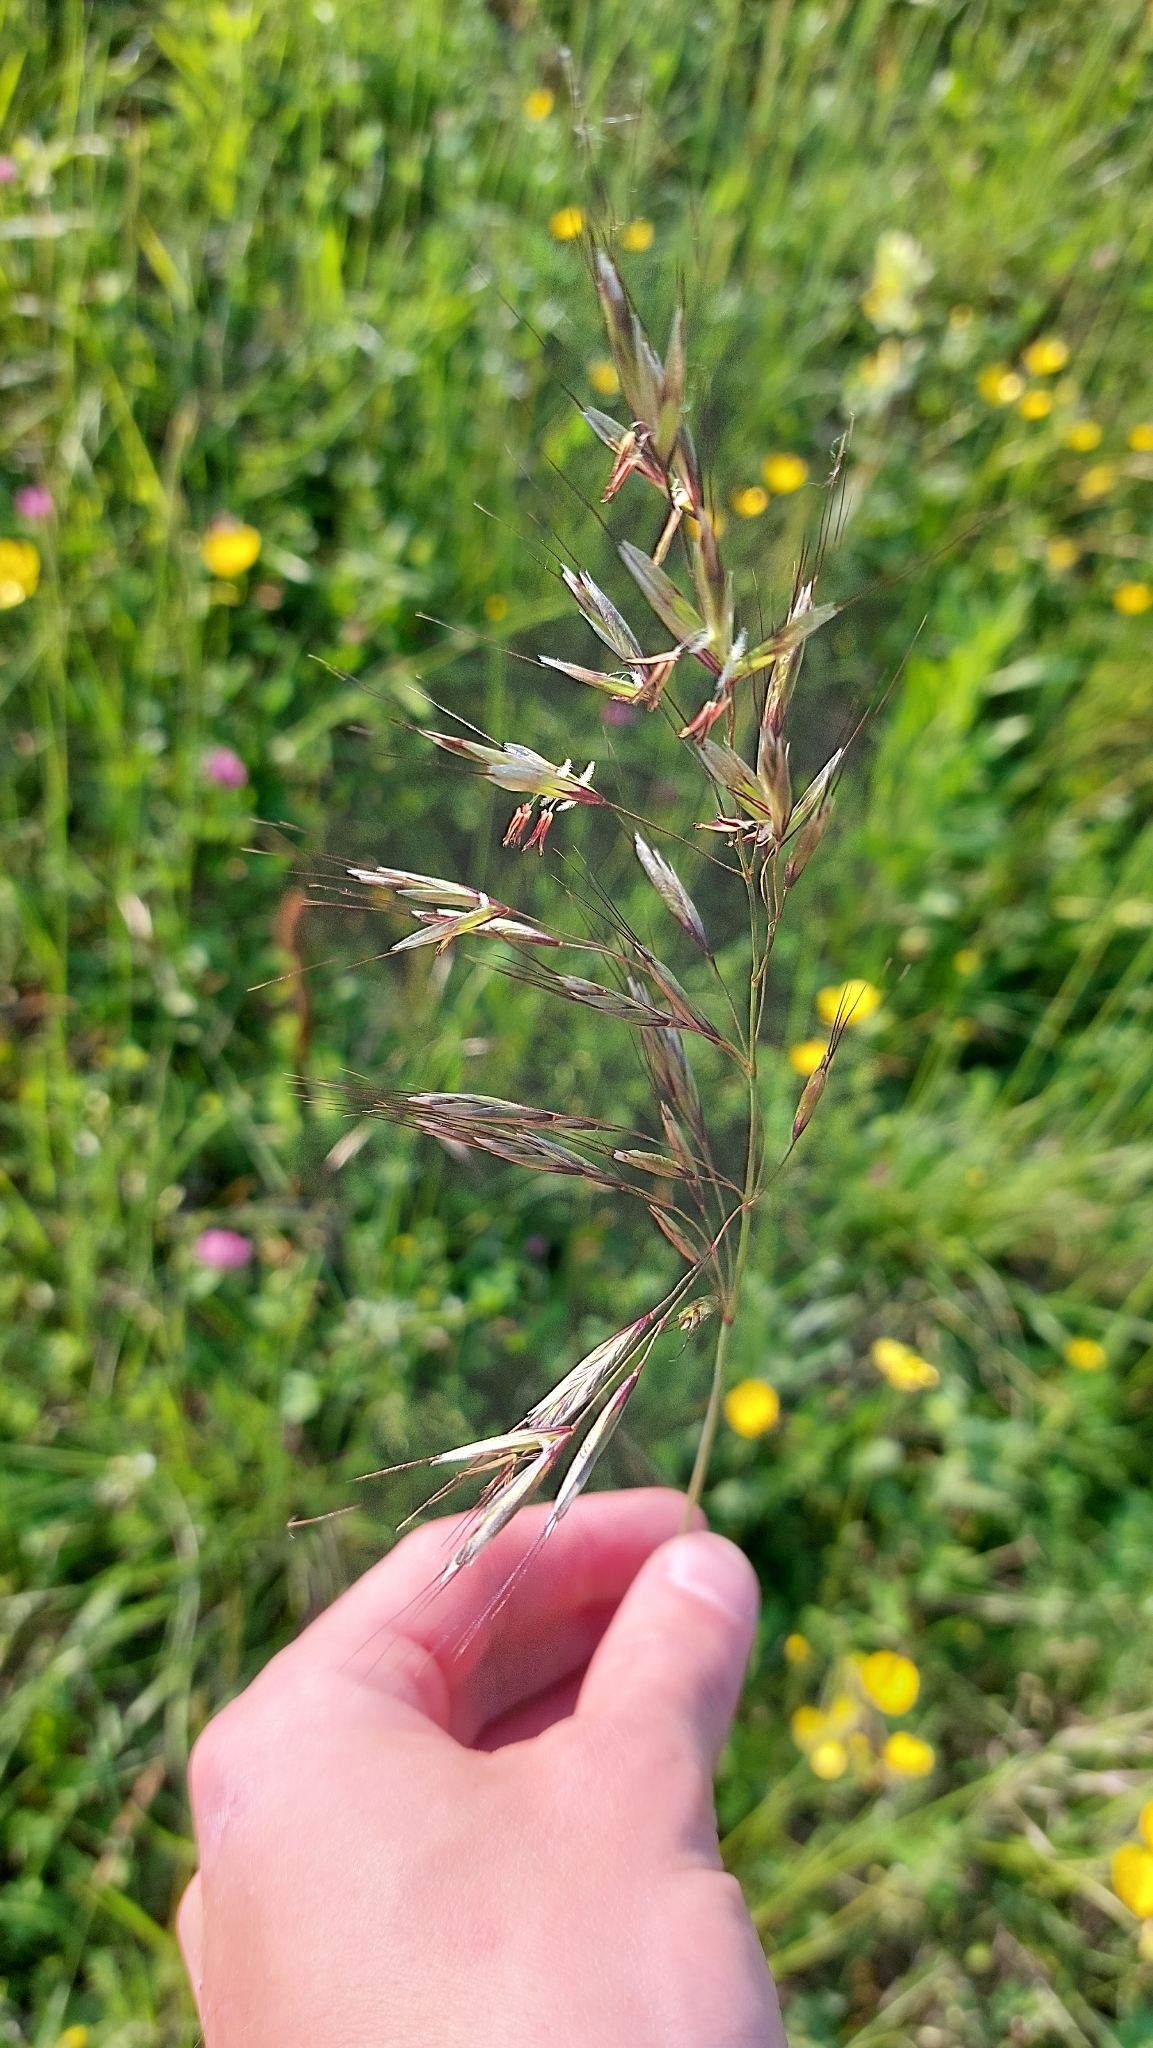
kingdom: Plantae
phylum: Tracheophyta
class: Liliopsida
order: Poales
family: Poaceae
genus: Avenula
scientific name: Avenula pubescens
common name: Downy alpine oatgrass
